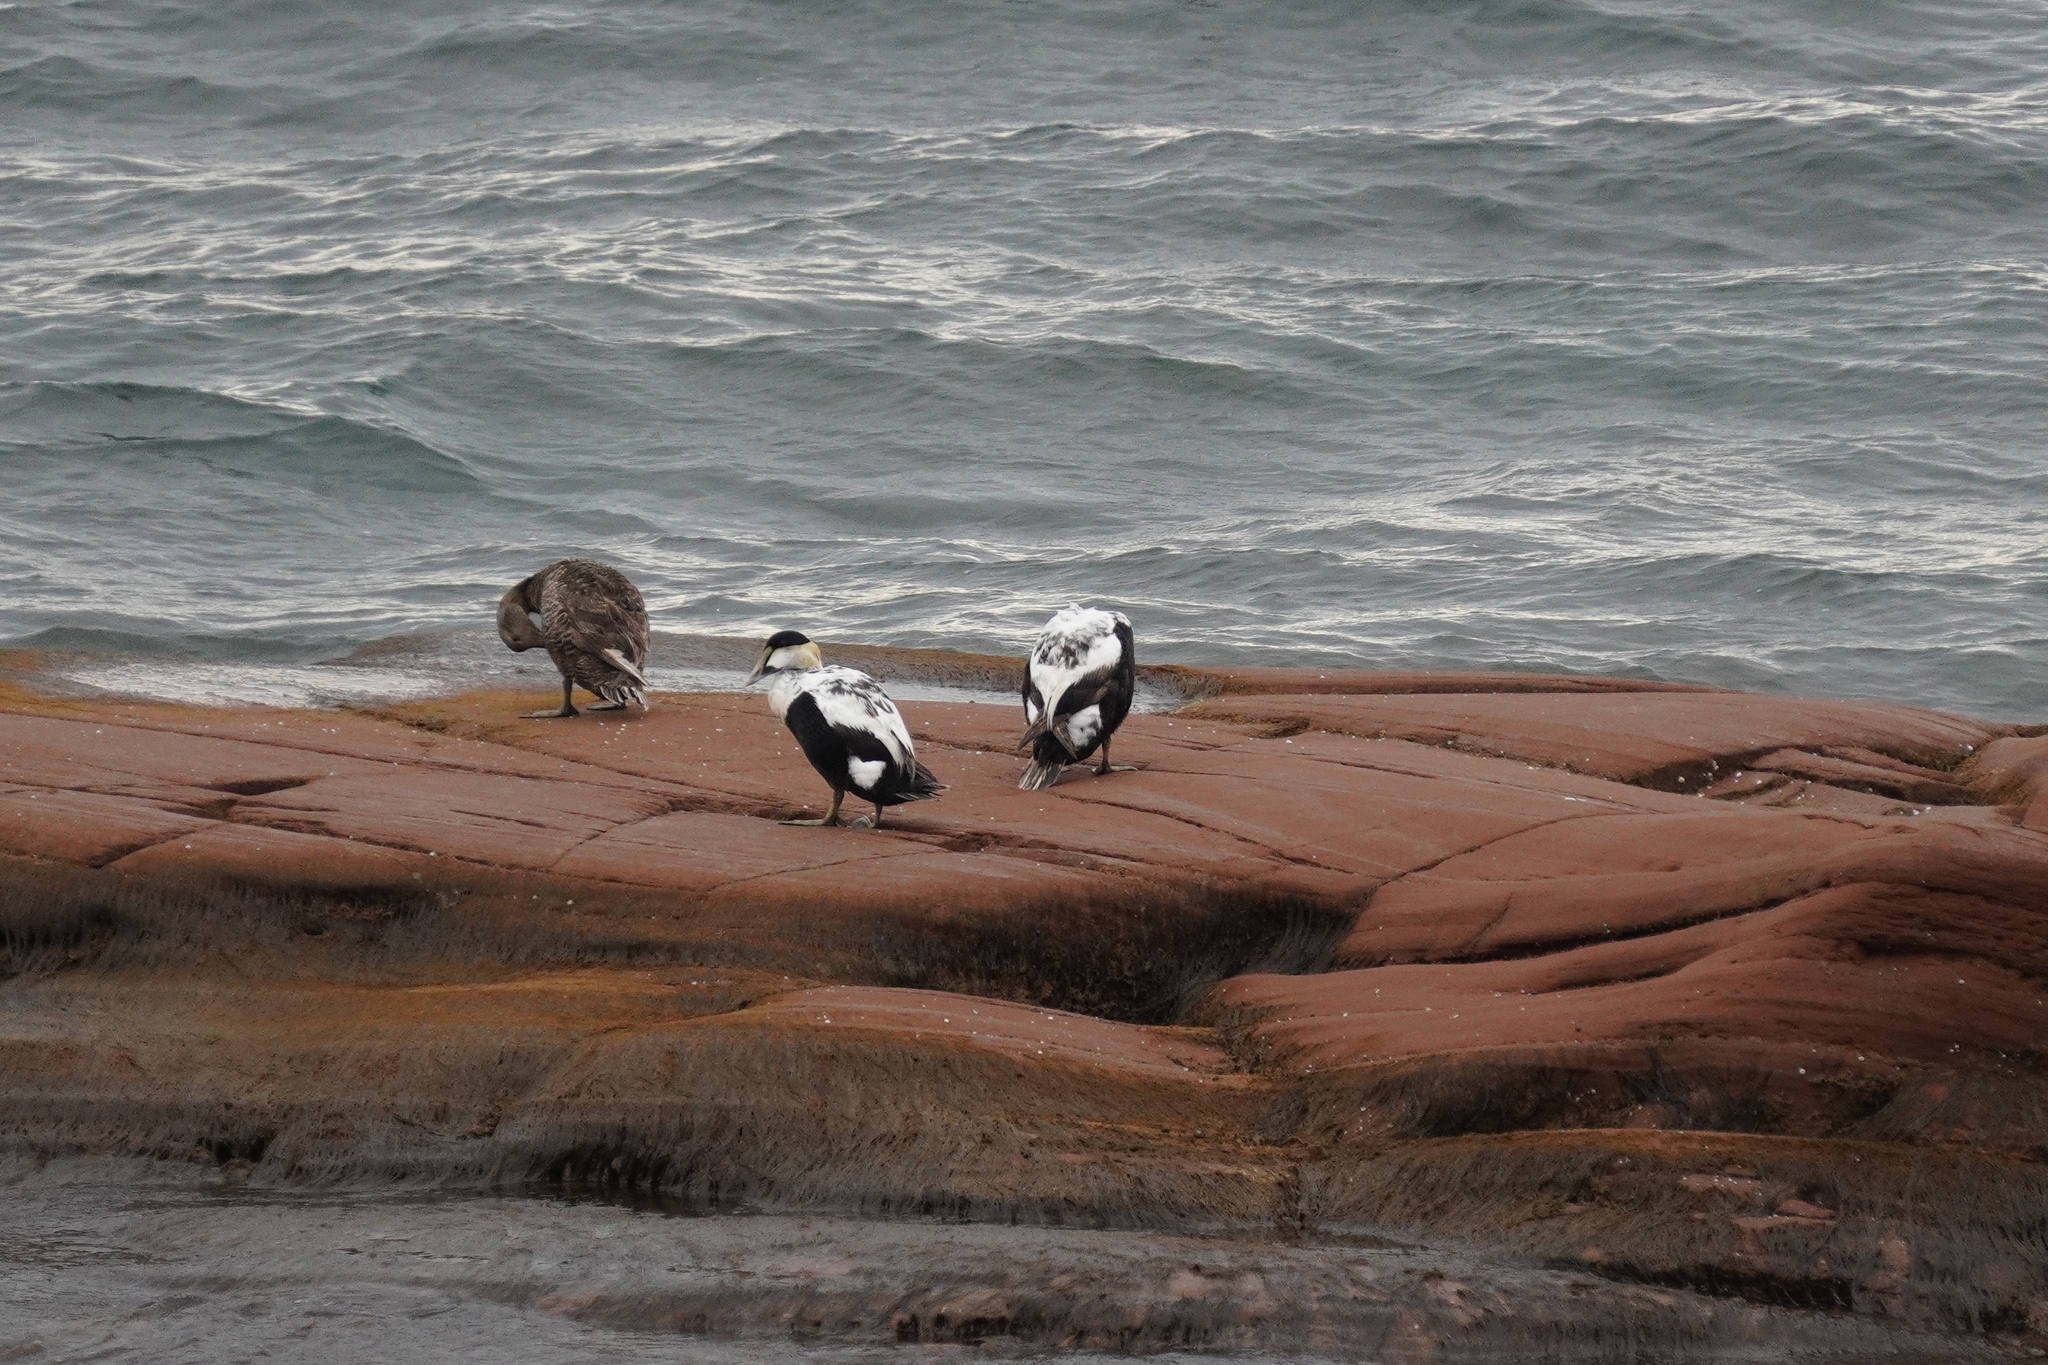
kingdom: Animalia
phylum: Chordata
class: Aves
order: Anseriformes
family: Anatidae
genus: Somateria
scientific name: Somateria mollissima
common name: Common eider
